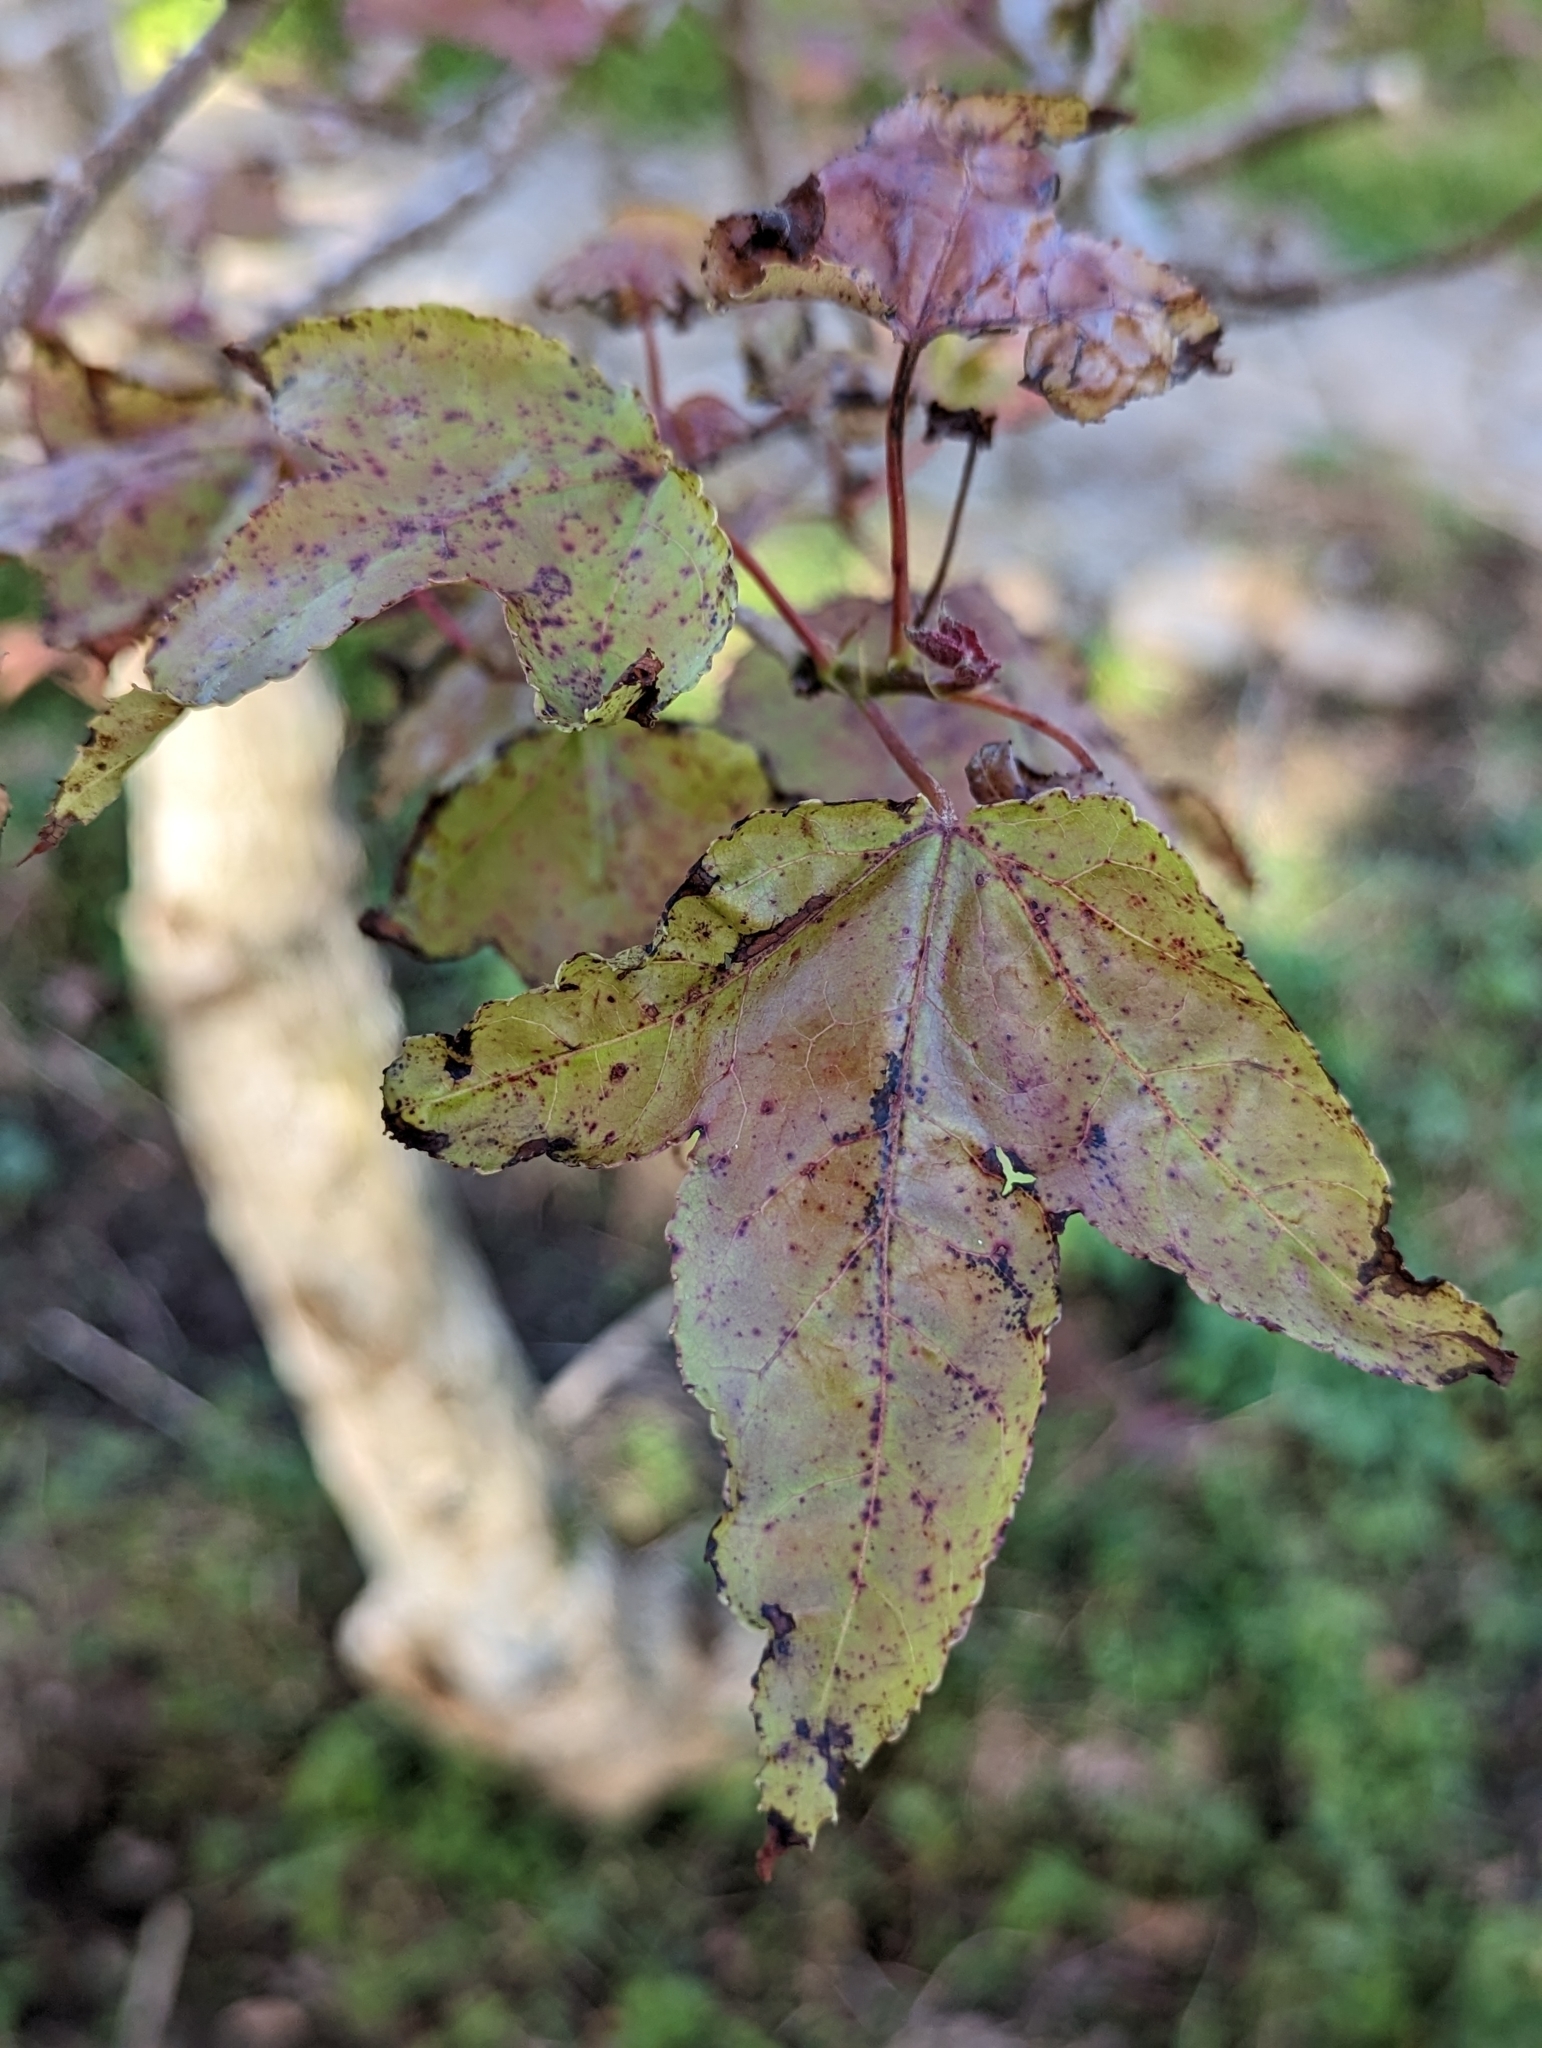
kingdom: Plantae
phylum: Tracheophyta
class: Magnoliopsida
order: Saxifragales
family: Altingiaceae
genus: Liquidambar
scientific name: Liquidambar formosana
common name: Chinese sweet gum
